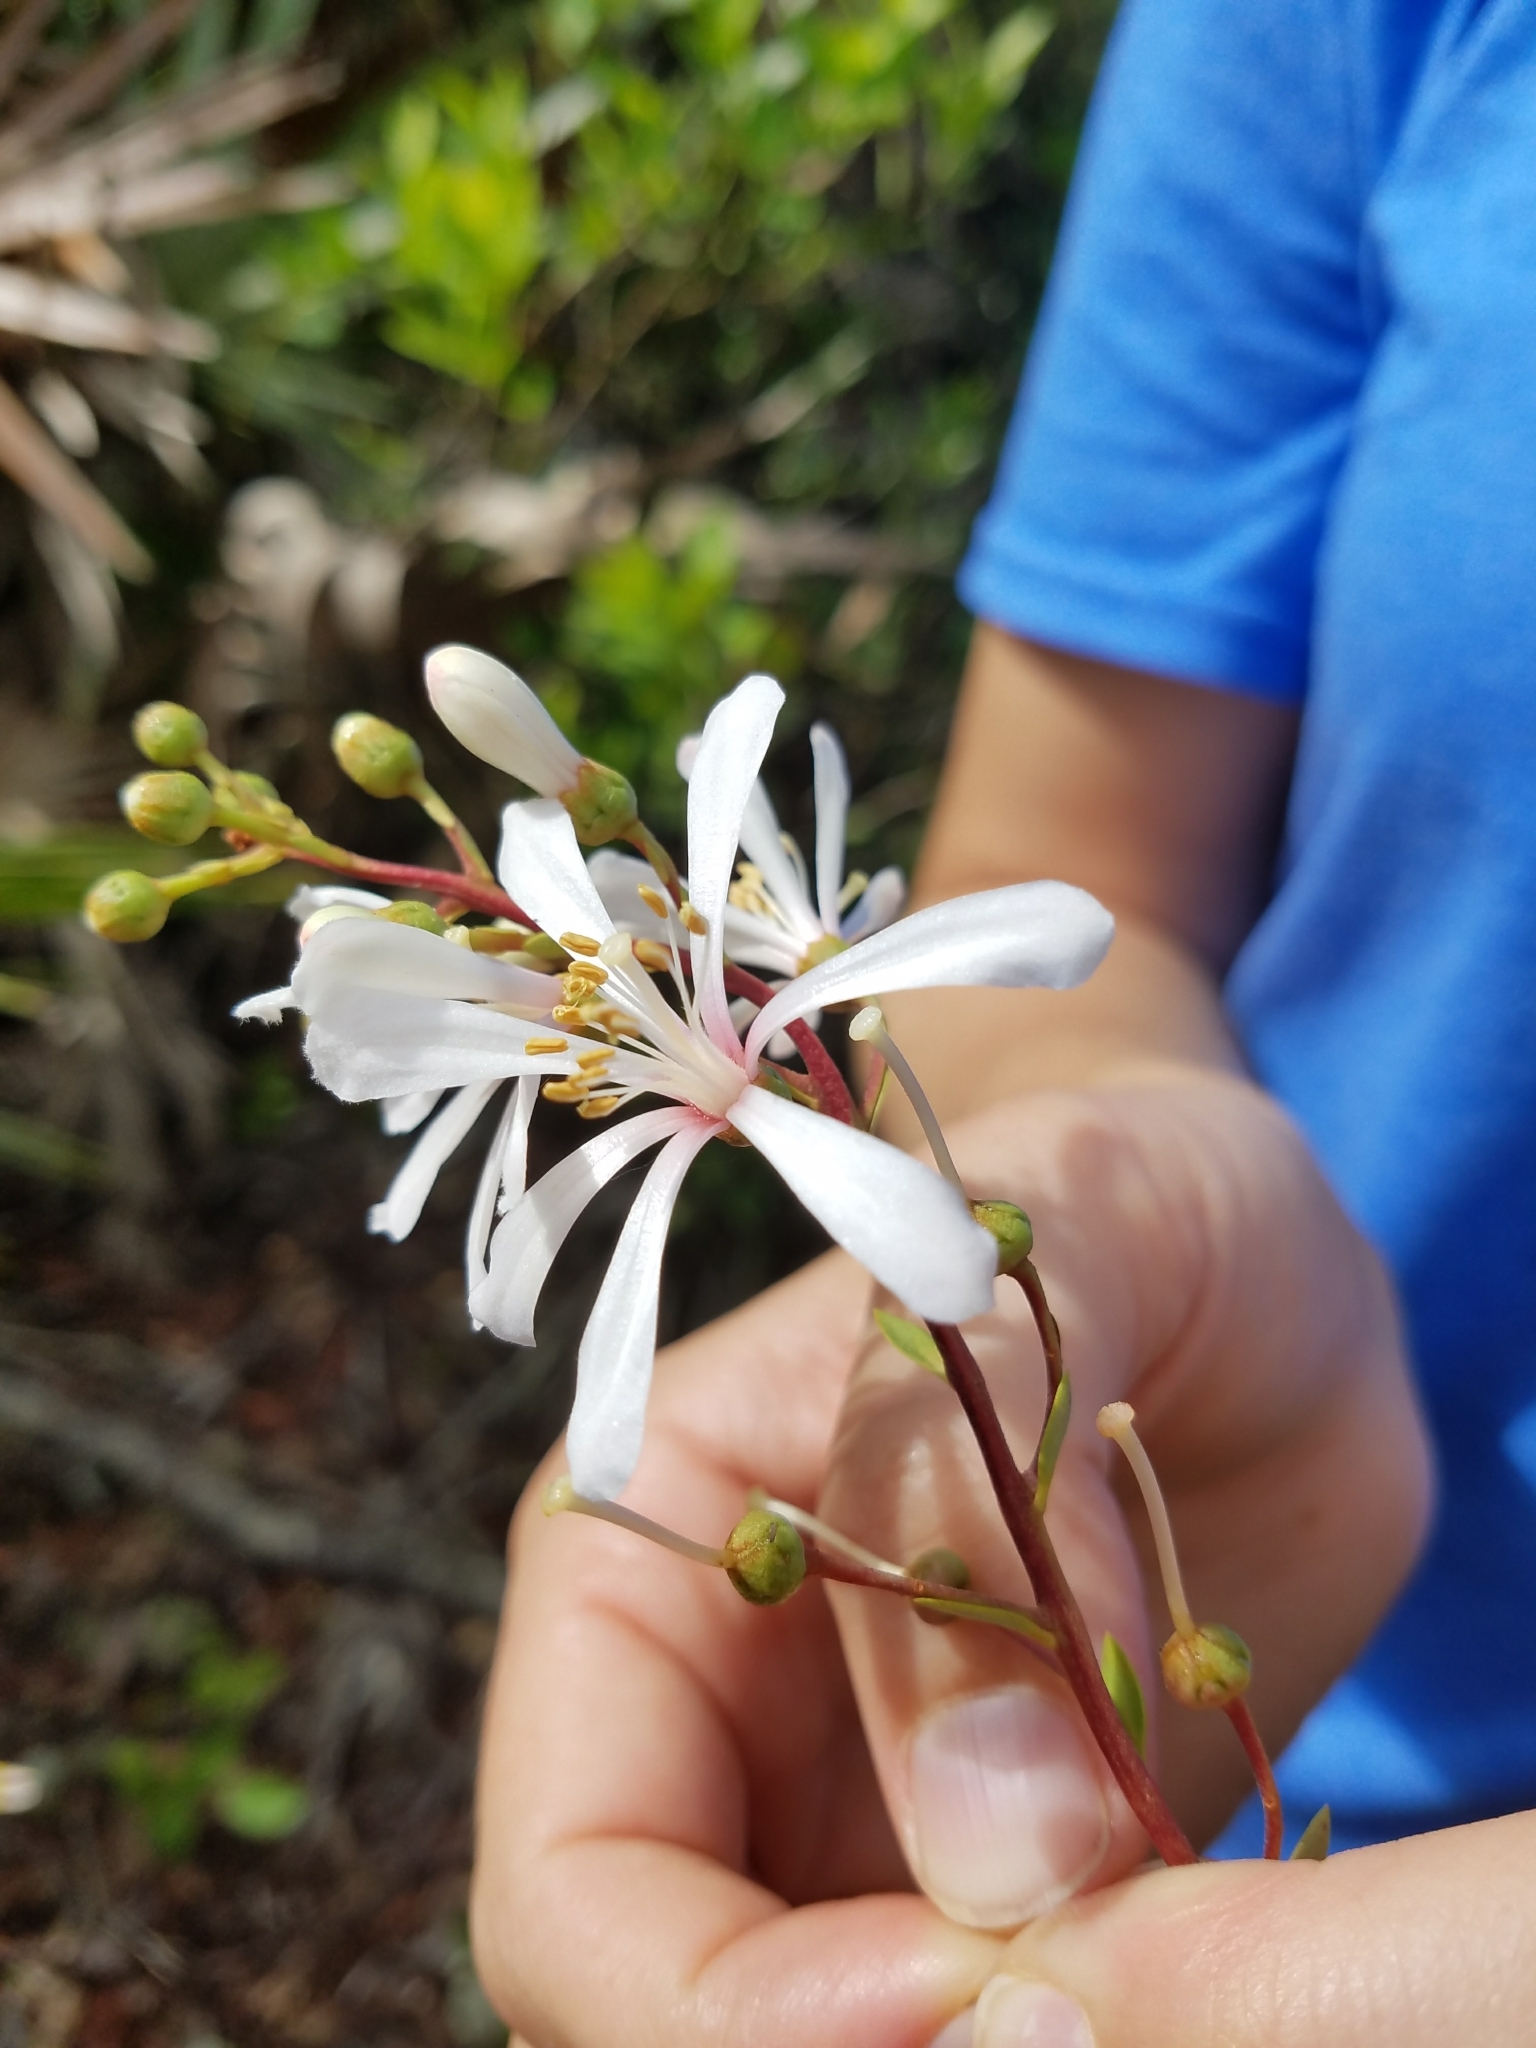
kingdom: Plantae
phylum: Tracheophyta
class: Magnoliopsida
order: Ericales
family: Ericaceae
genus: Bejaria
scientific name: Bejaria racemosa
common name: Tarflower
